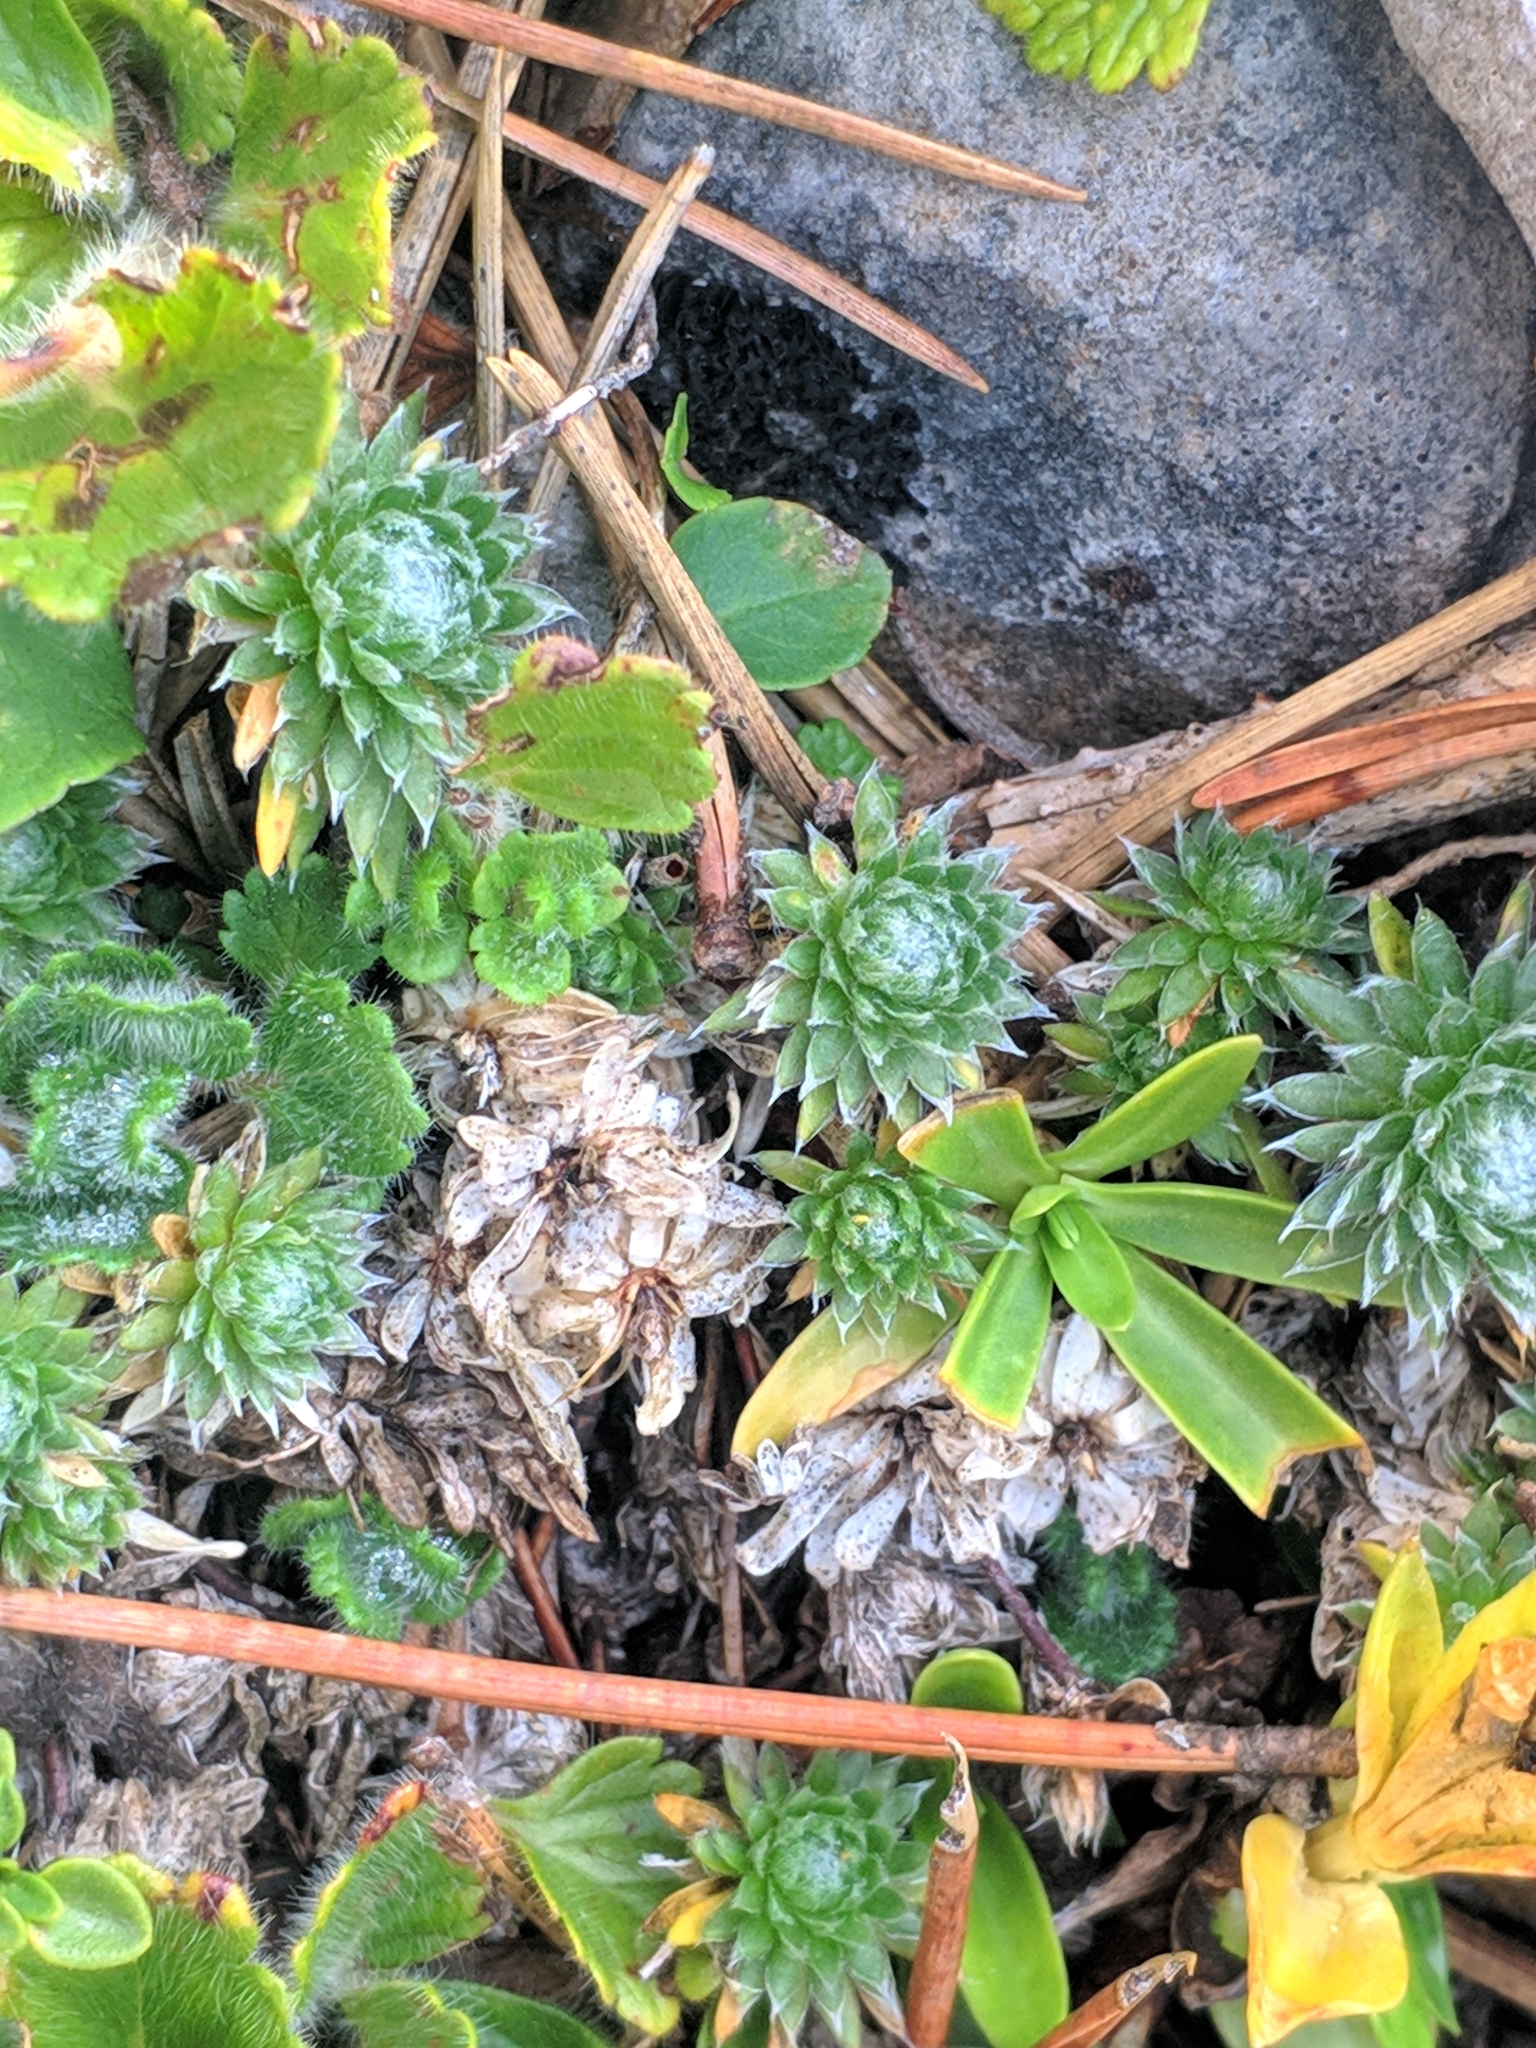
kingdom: Plantae
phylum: Tracheophyta
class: Magnoliopsida
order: Ericales
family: Primulaceae
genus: Androsace
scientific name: Androsace villosa
